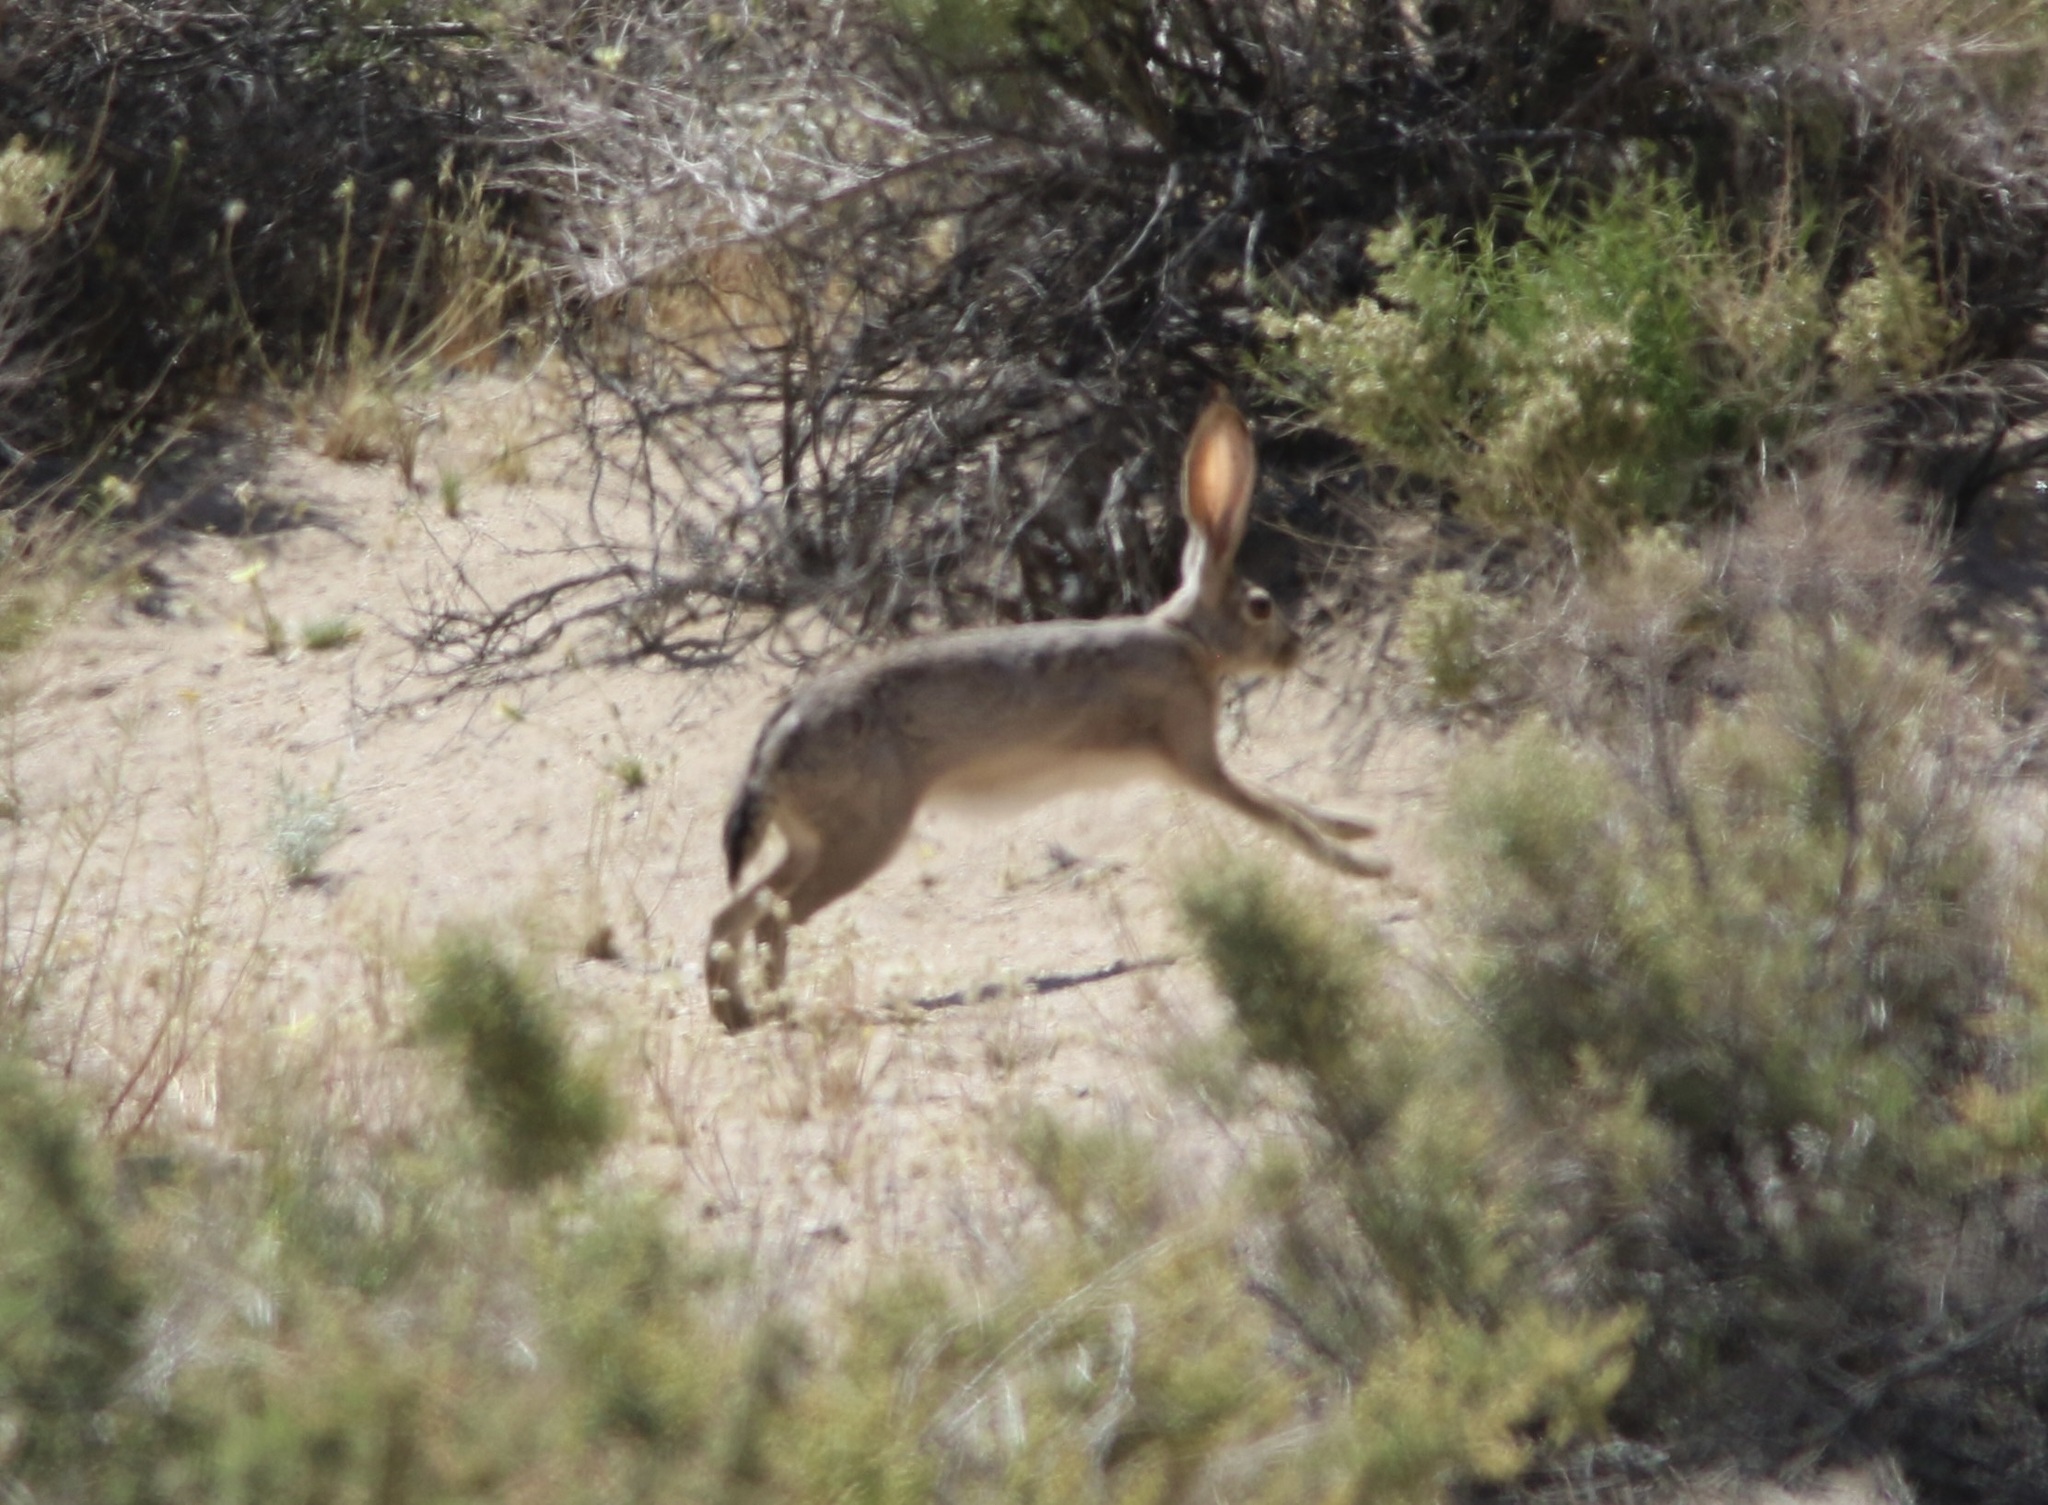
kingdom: Animalia
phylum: Chordata
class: Mammalia
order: Lagomorpha
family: Leporidae
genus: Lepus
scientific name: Lepus californicus
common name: Black-tailed jackrabbit
